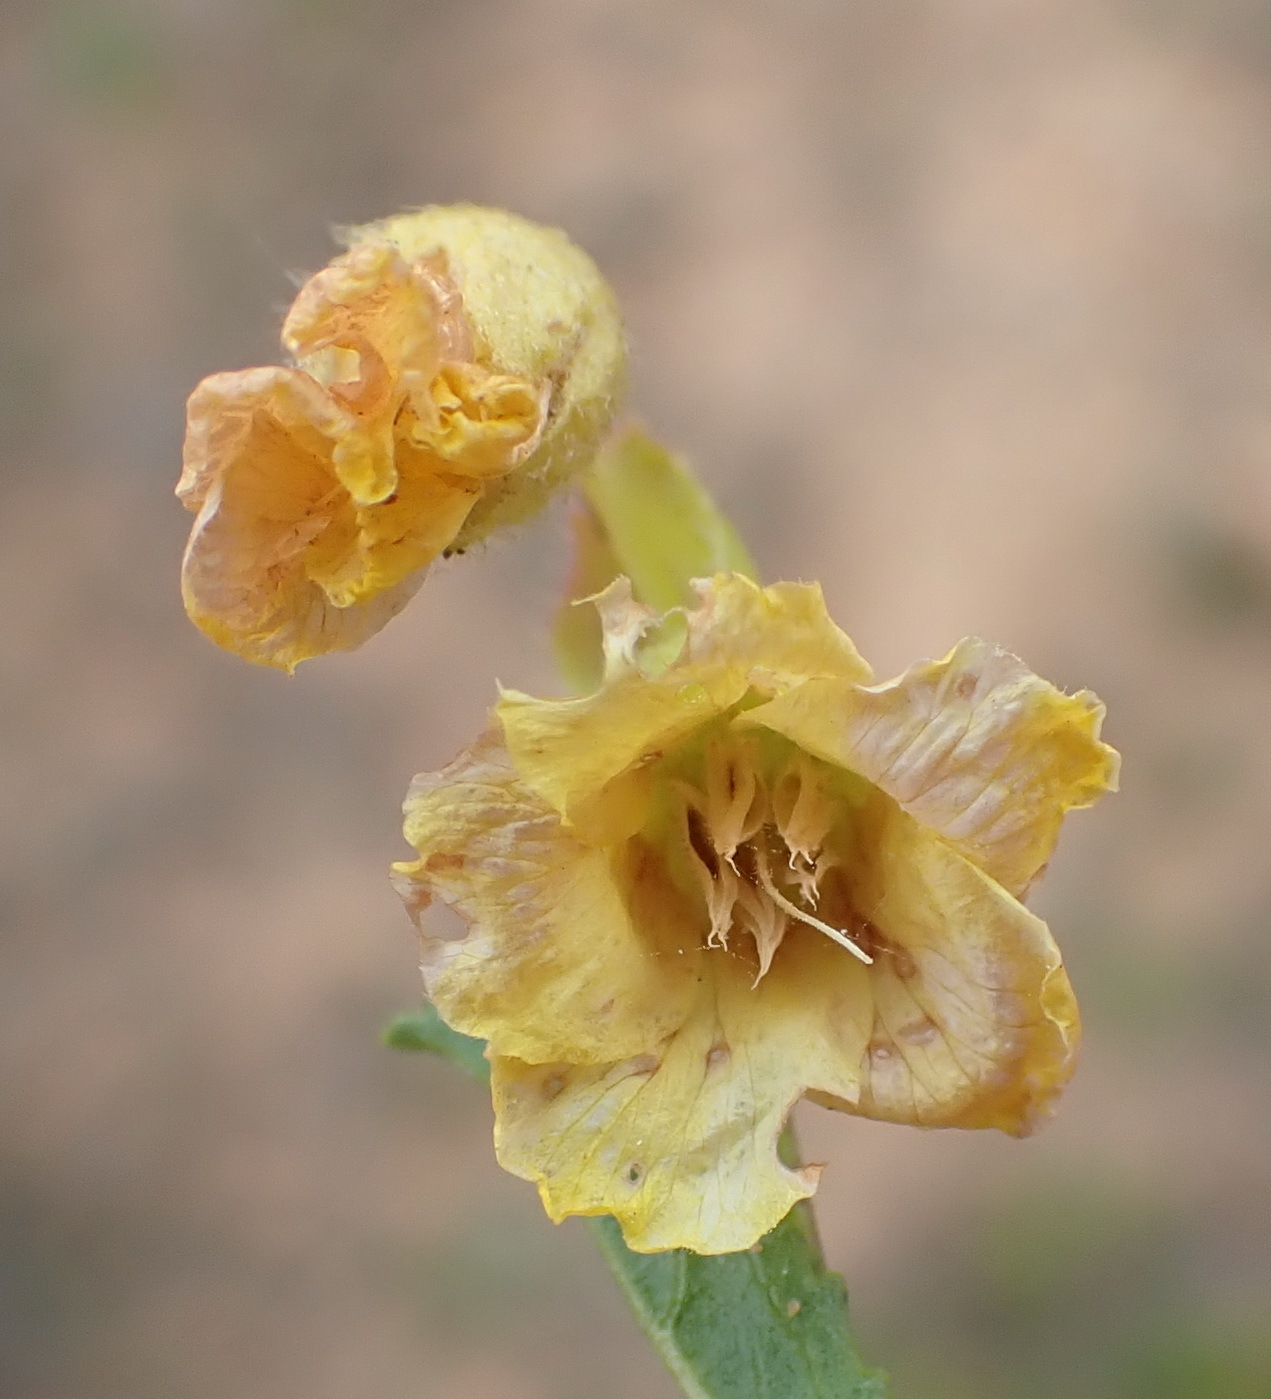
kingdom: Plantae
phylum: Tracheophyta
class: Magnoliopsida
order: Malvales
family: Malvaceae
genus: Hermannia
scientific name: Hermannia saccifera
